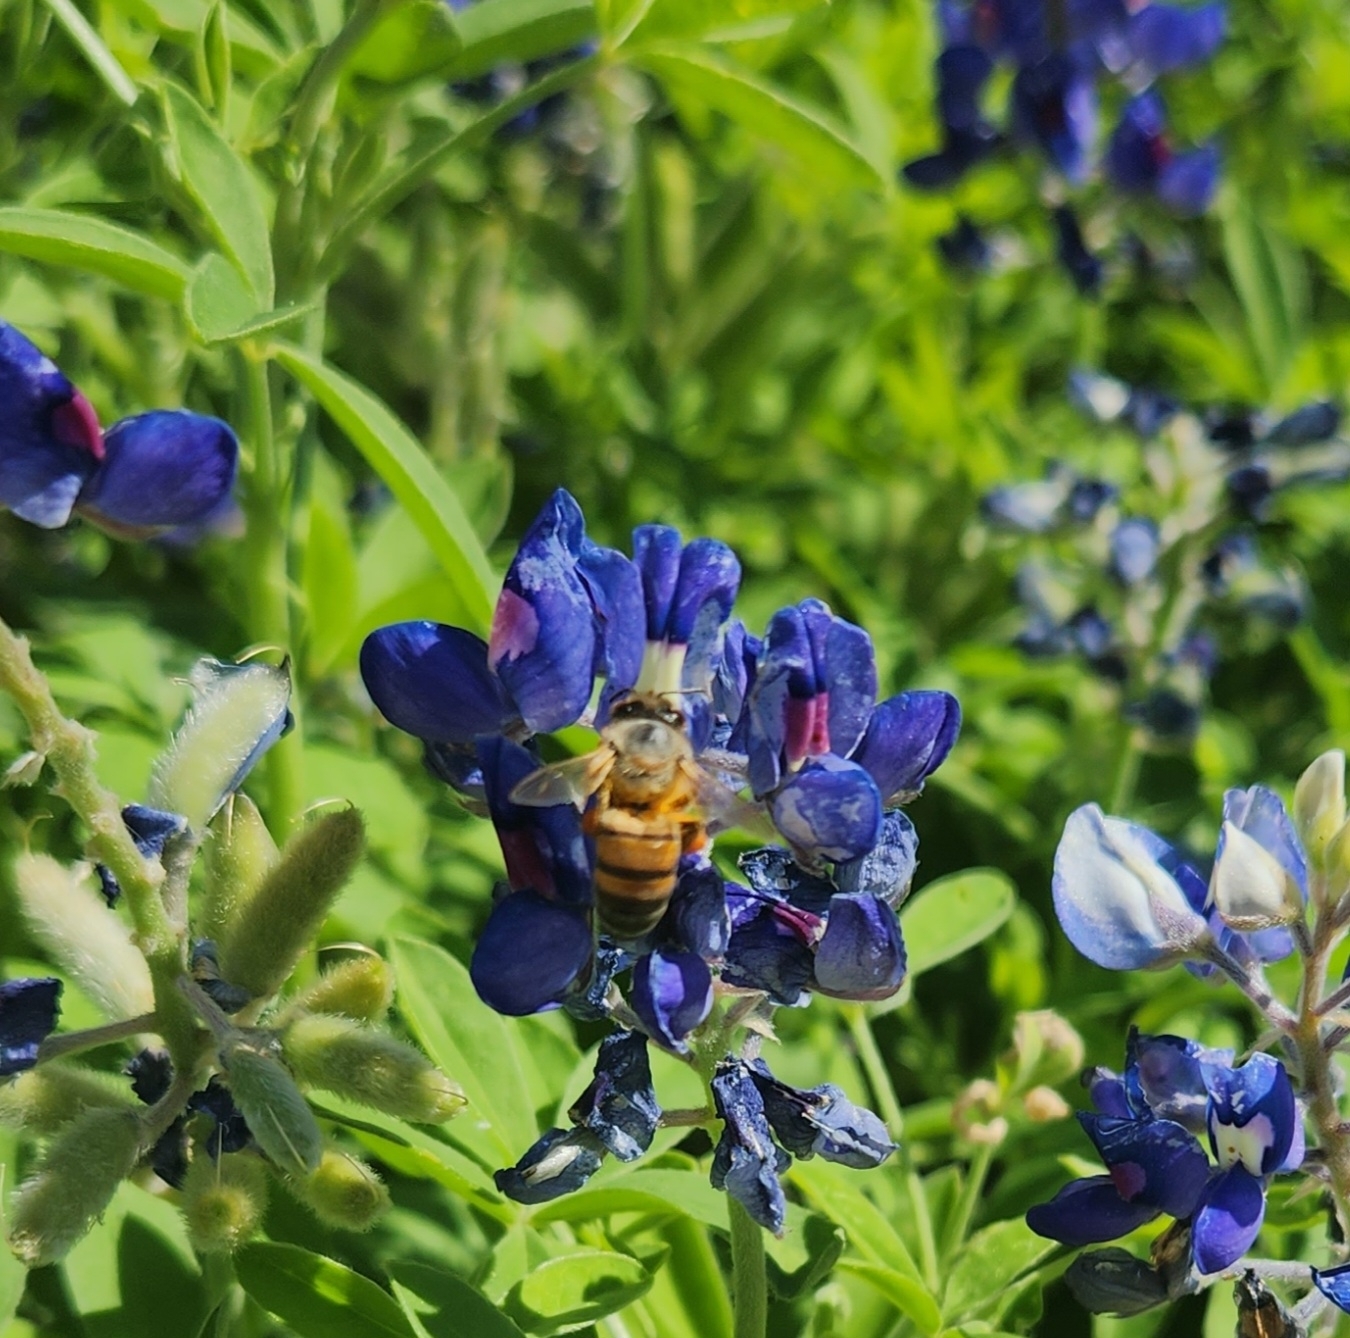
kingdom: Animalia
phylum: Arthropoda
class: Insecta
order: Hymenoptera
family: Apidae
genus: Apis
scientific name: Apis mellifera
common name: Honey bee
